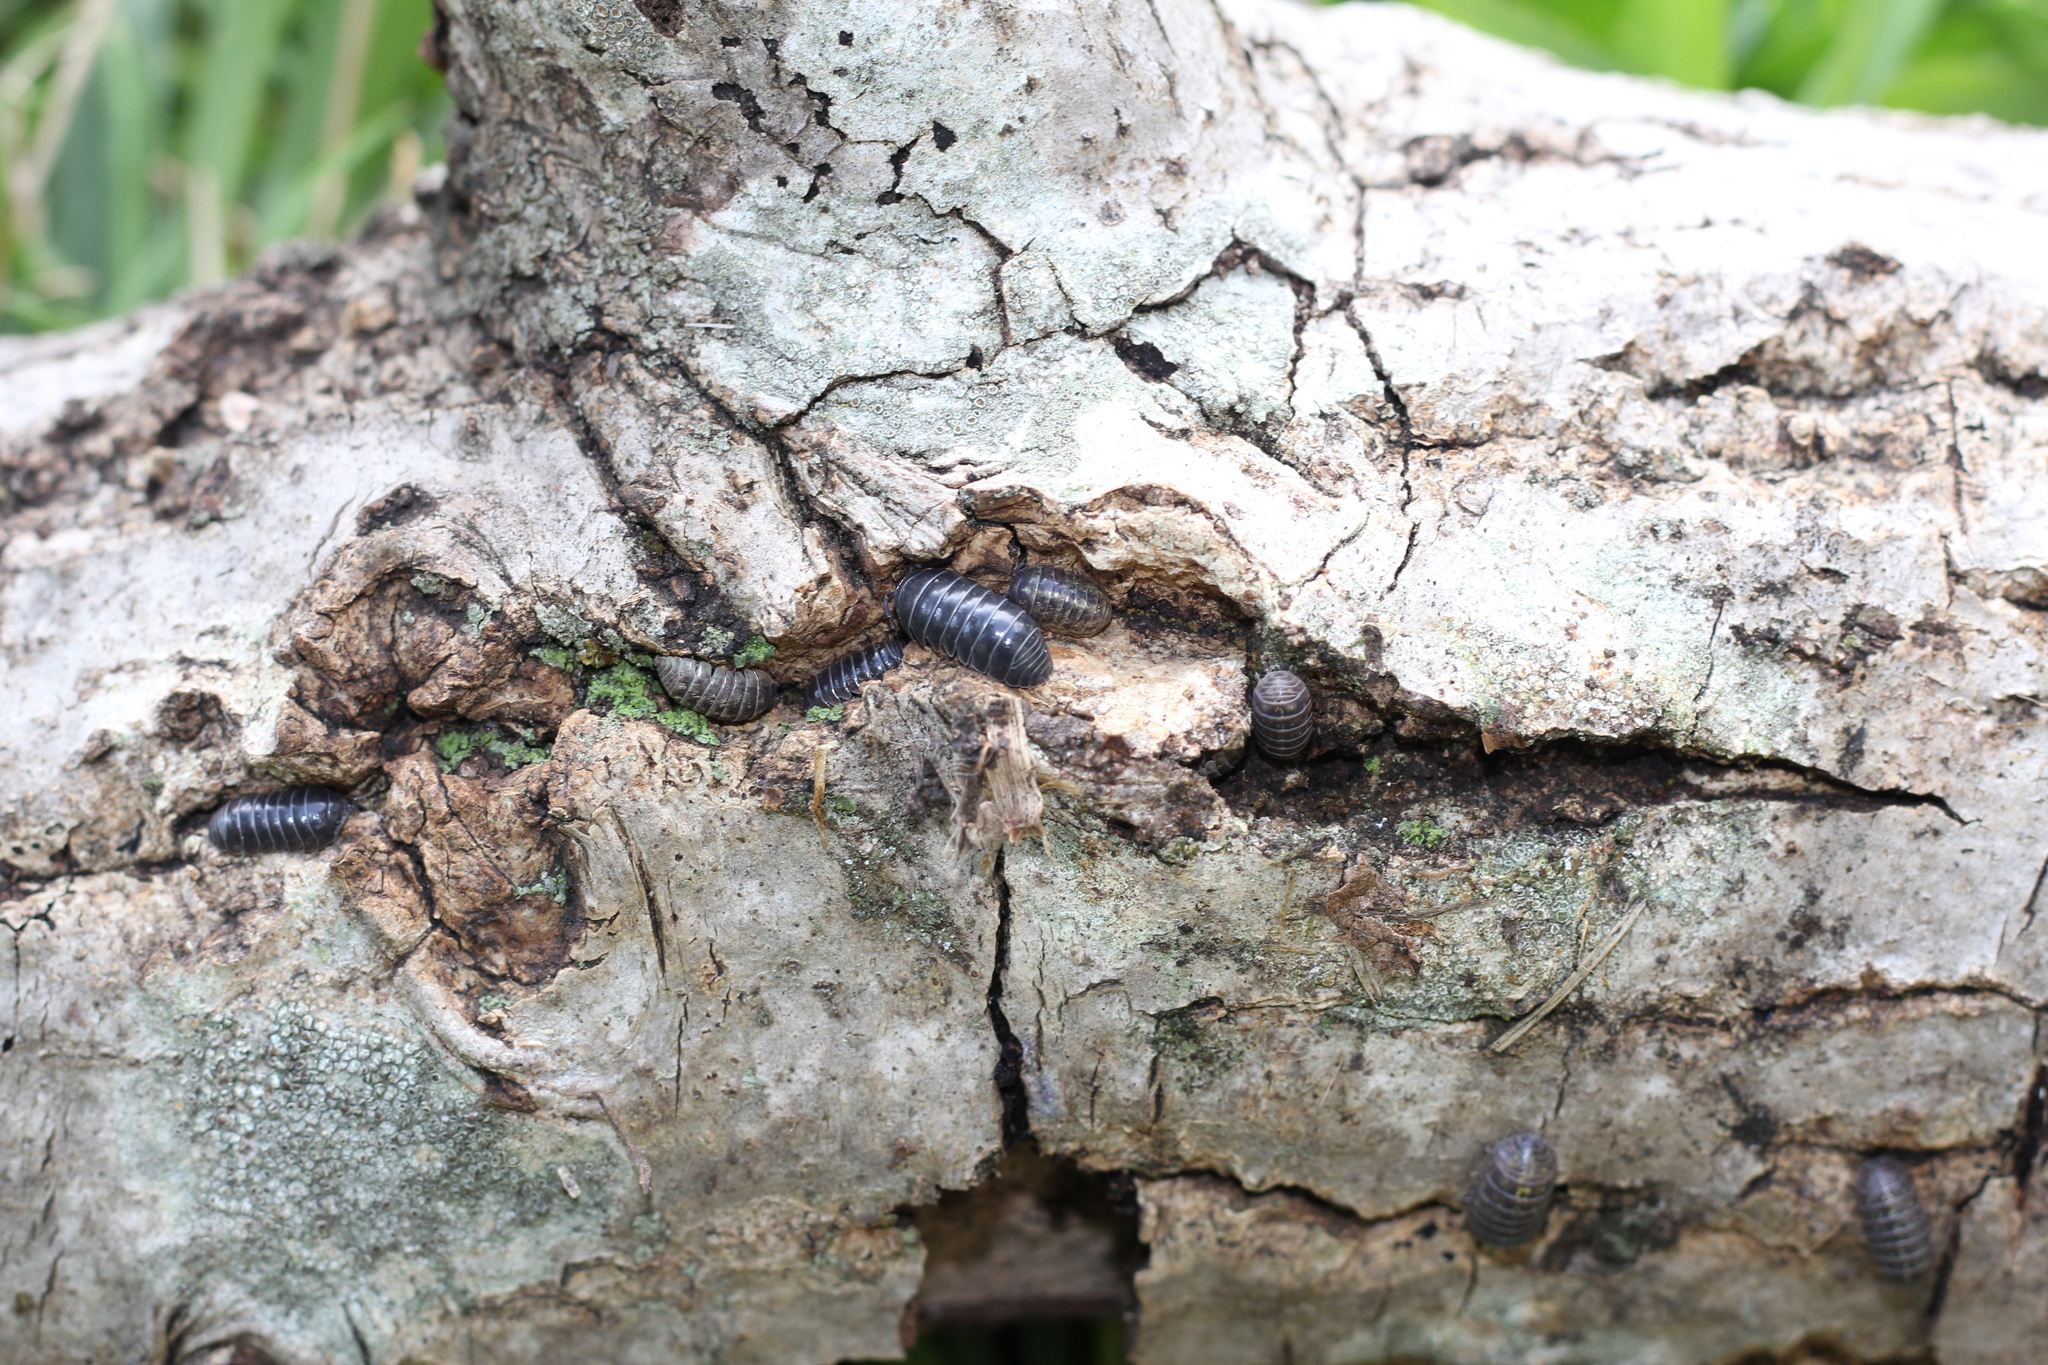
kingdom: Animalia
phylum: Arthropoda
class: Malacostraca
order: Isopoda
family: Armadillidiidae
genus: Armadillidium
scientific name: Armadillidium vulgare
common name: Common pill woodlouse
